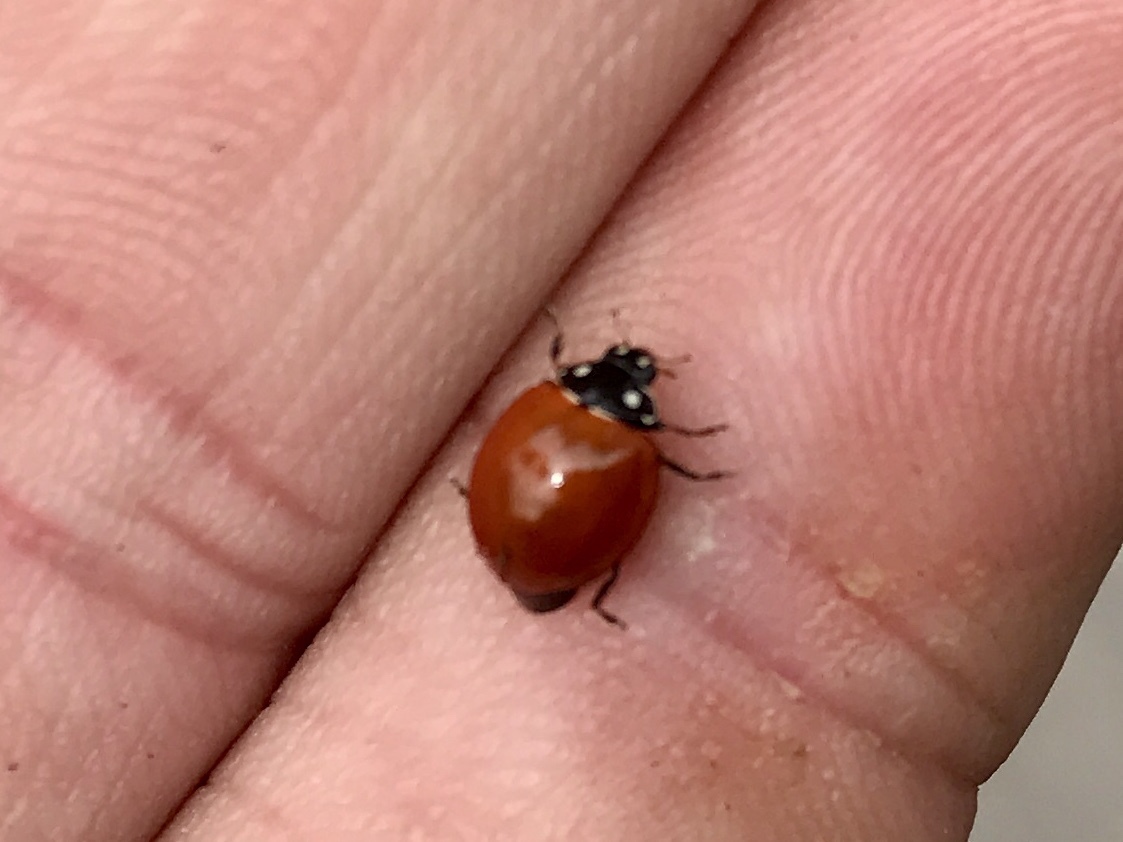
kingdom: Animalia
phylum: Arthropoda
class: Insecta
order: Coleoptera
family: Coccinellidae
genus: Cycloneda
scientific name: Cycloneda sanguinea
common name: Ladybird beetle
